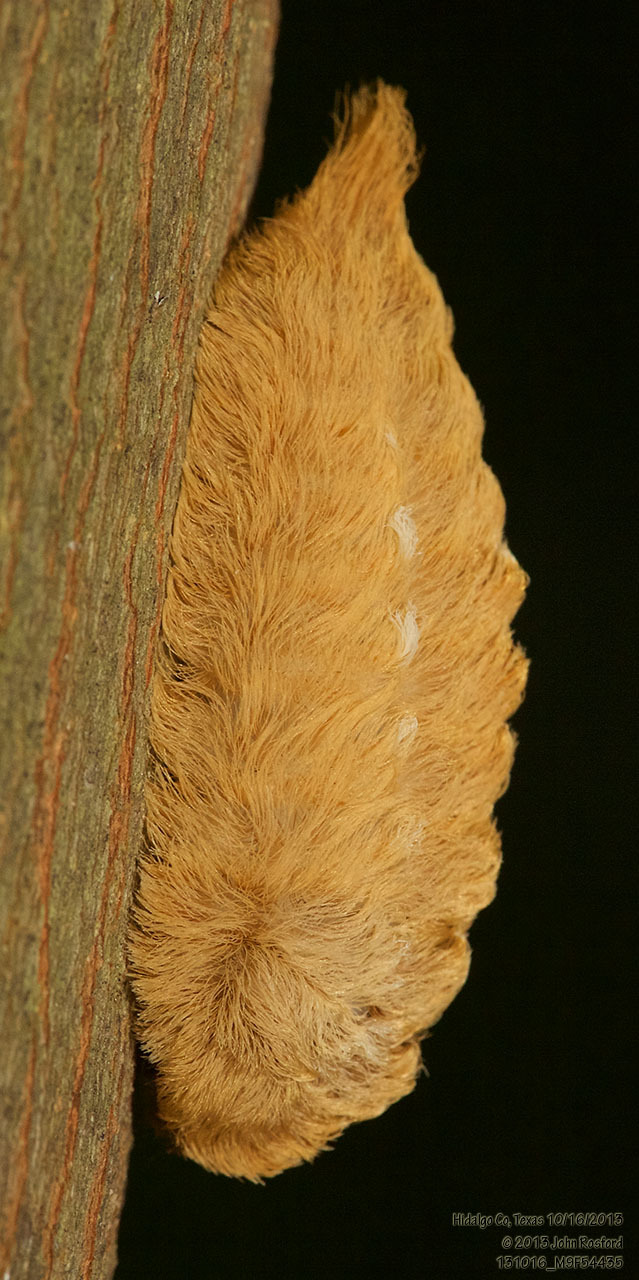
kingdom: Animalia
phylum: Arthropoda
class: Insecta
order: Lepidoptera
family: Megalopygidae
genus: Megalopyge
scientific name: Megalopyge opercularis
